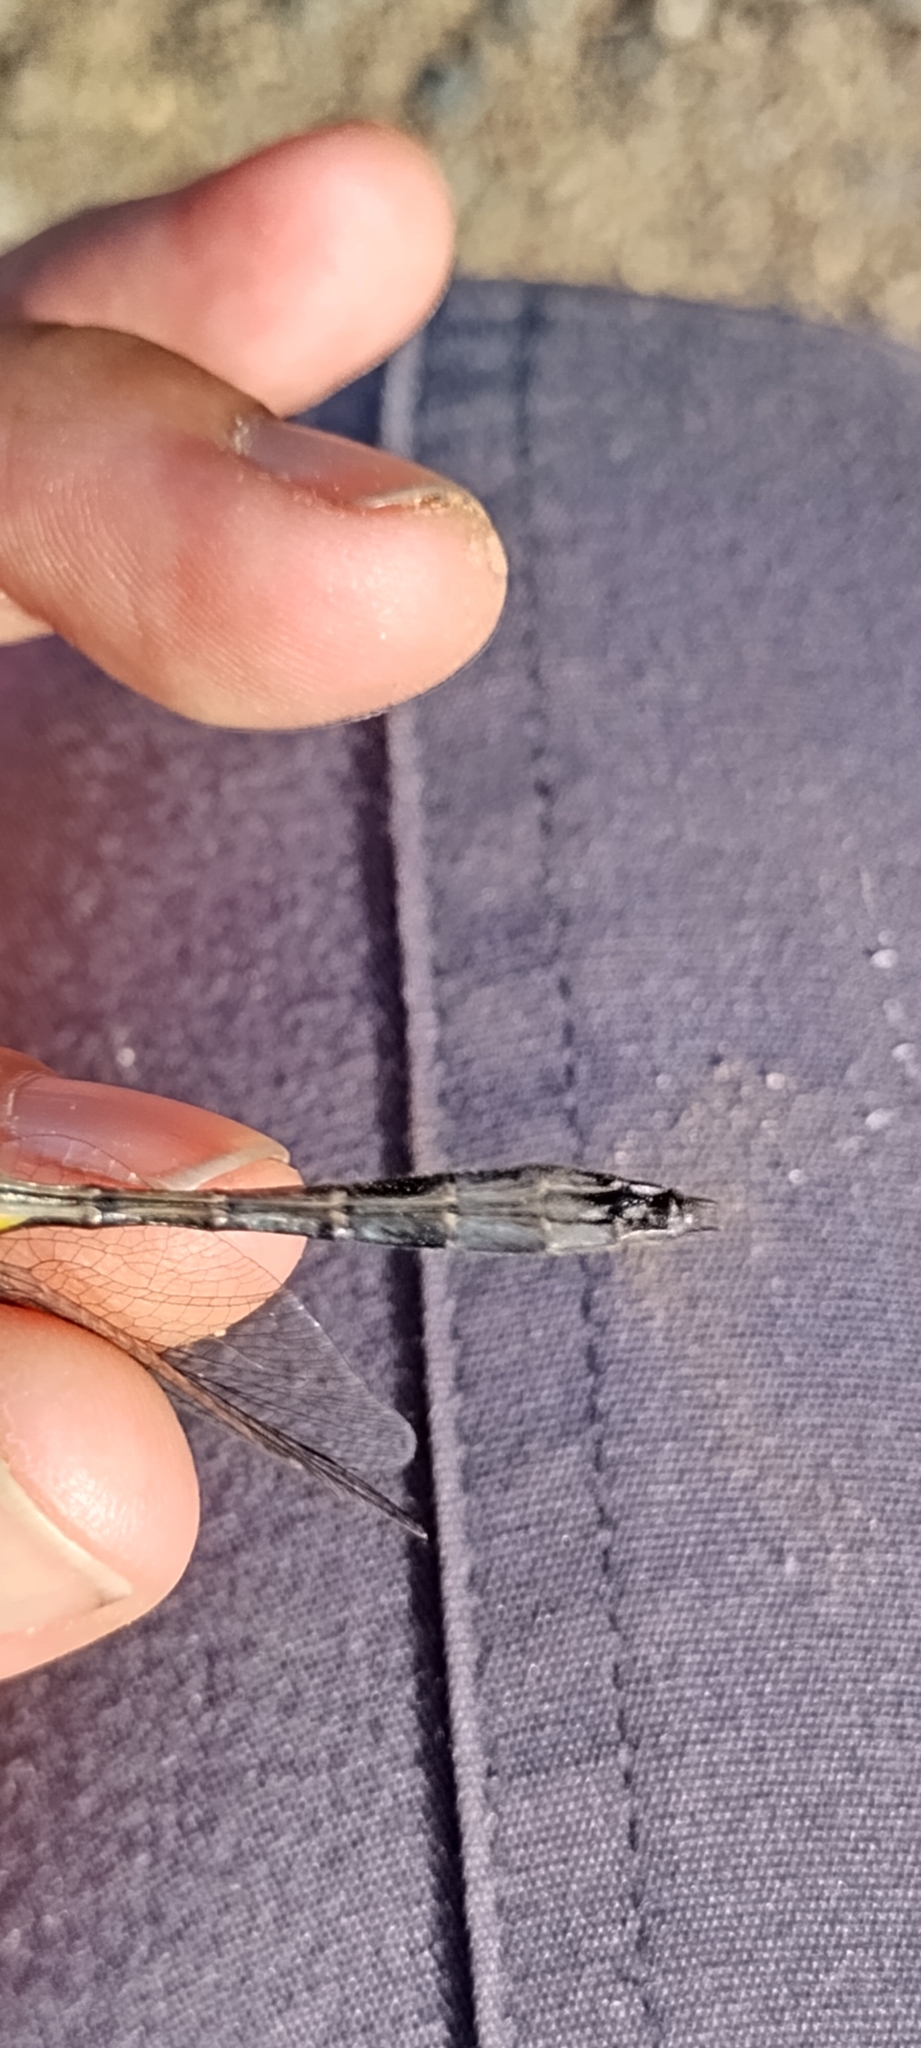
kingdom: Animalia
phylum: Arthropoda
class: Insecta
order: Odonata
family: Corduliidae
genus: Dorocordulia
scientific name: Dorocordulia libera
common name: Racket-tailed emerald
